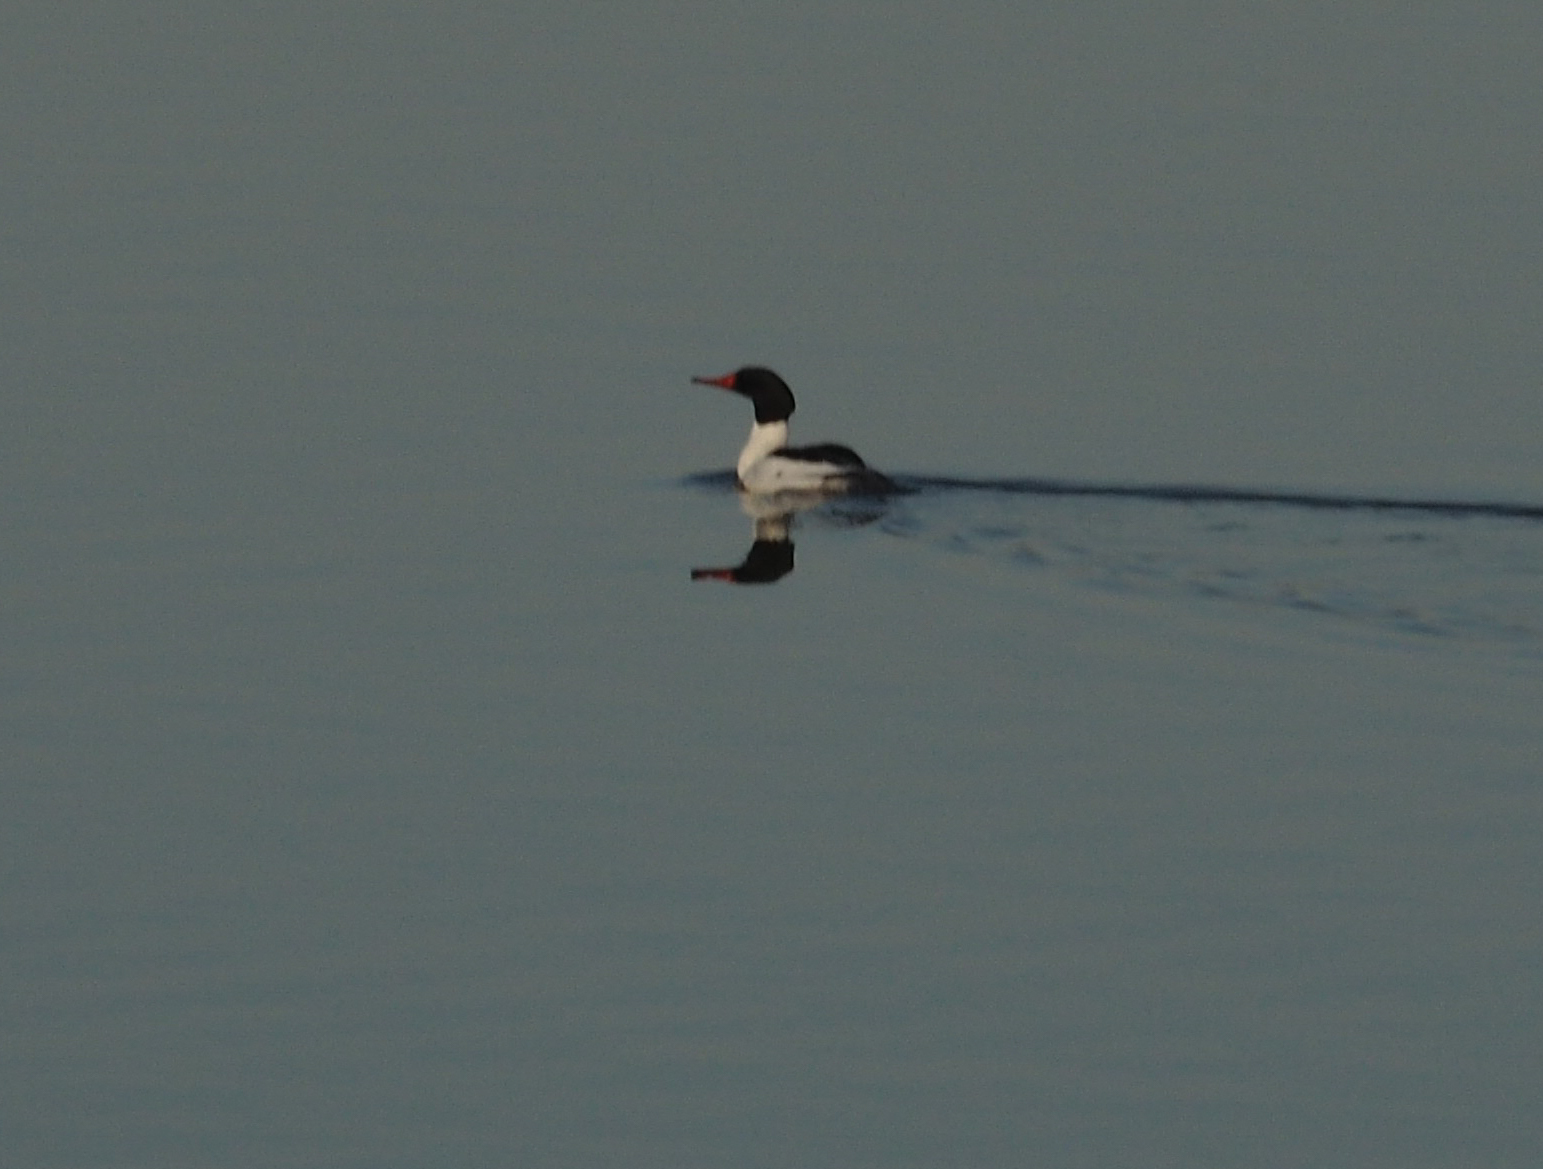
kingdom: Animalia
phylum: Chordata
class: Aves
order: Anseriformes
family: Anatidae
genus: Mergus
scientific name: Mergus merganser
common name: Common merganser
